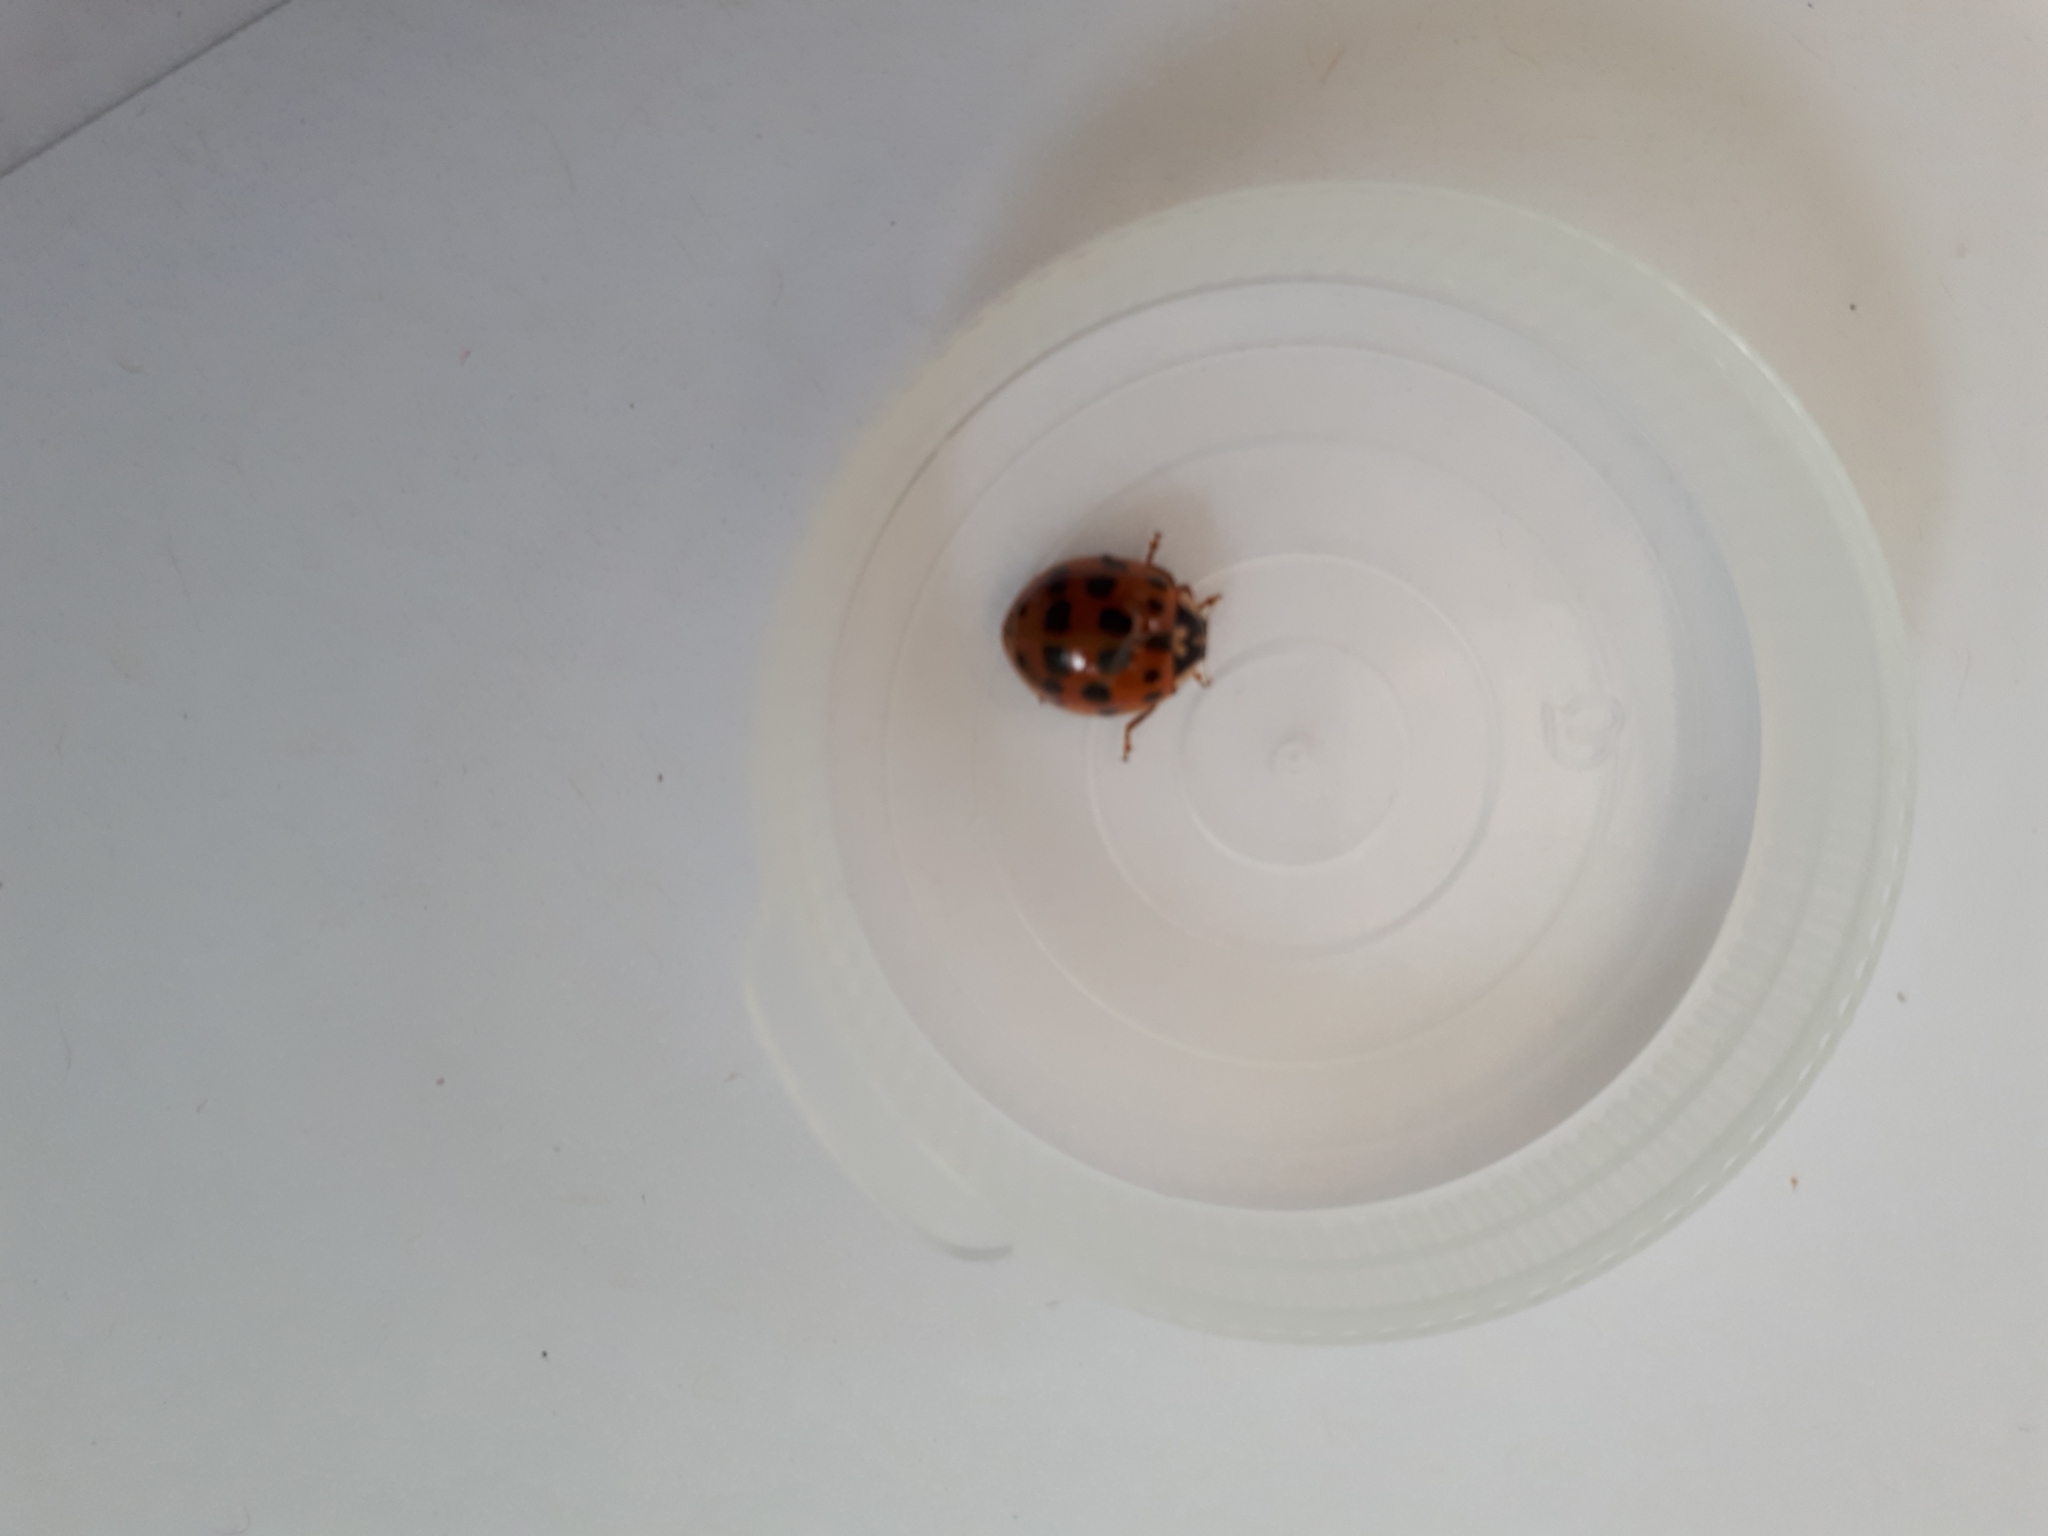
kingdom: Animalia
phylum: Arthropoda
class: Insecta
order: Coleoptera
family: Coccinellidae
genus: Harmonia
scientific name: Harmonia axyridis
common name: Harlequin ladybird
